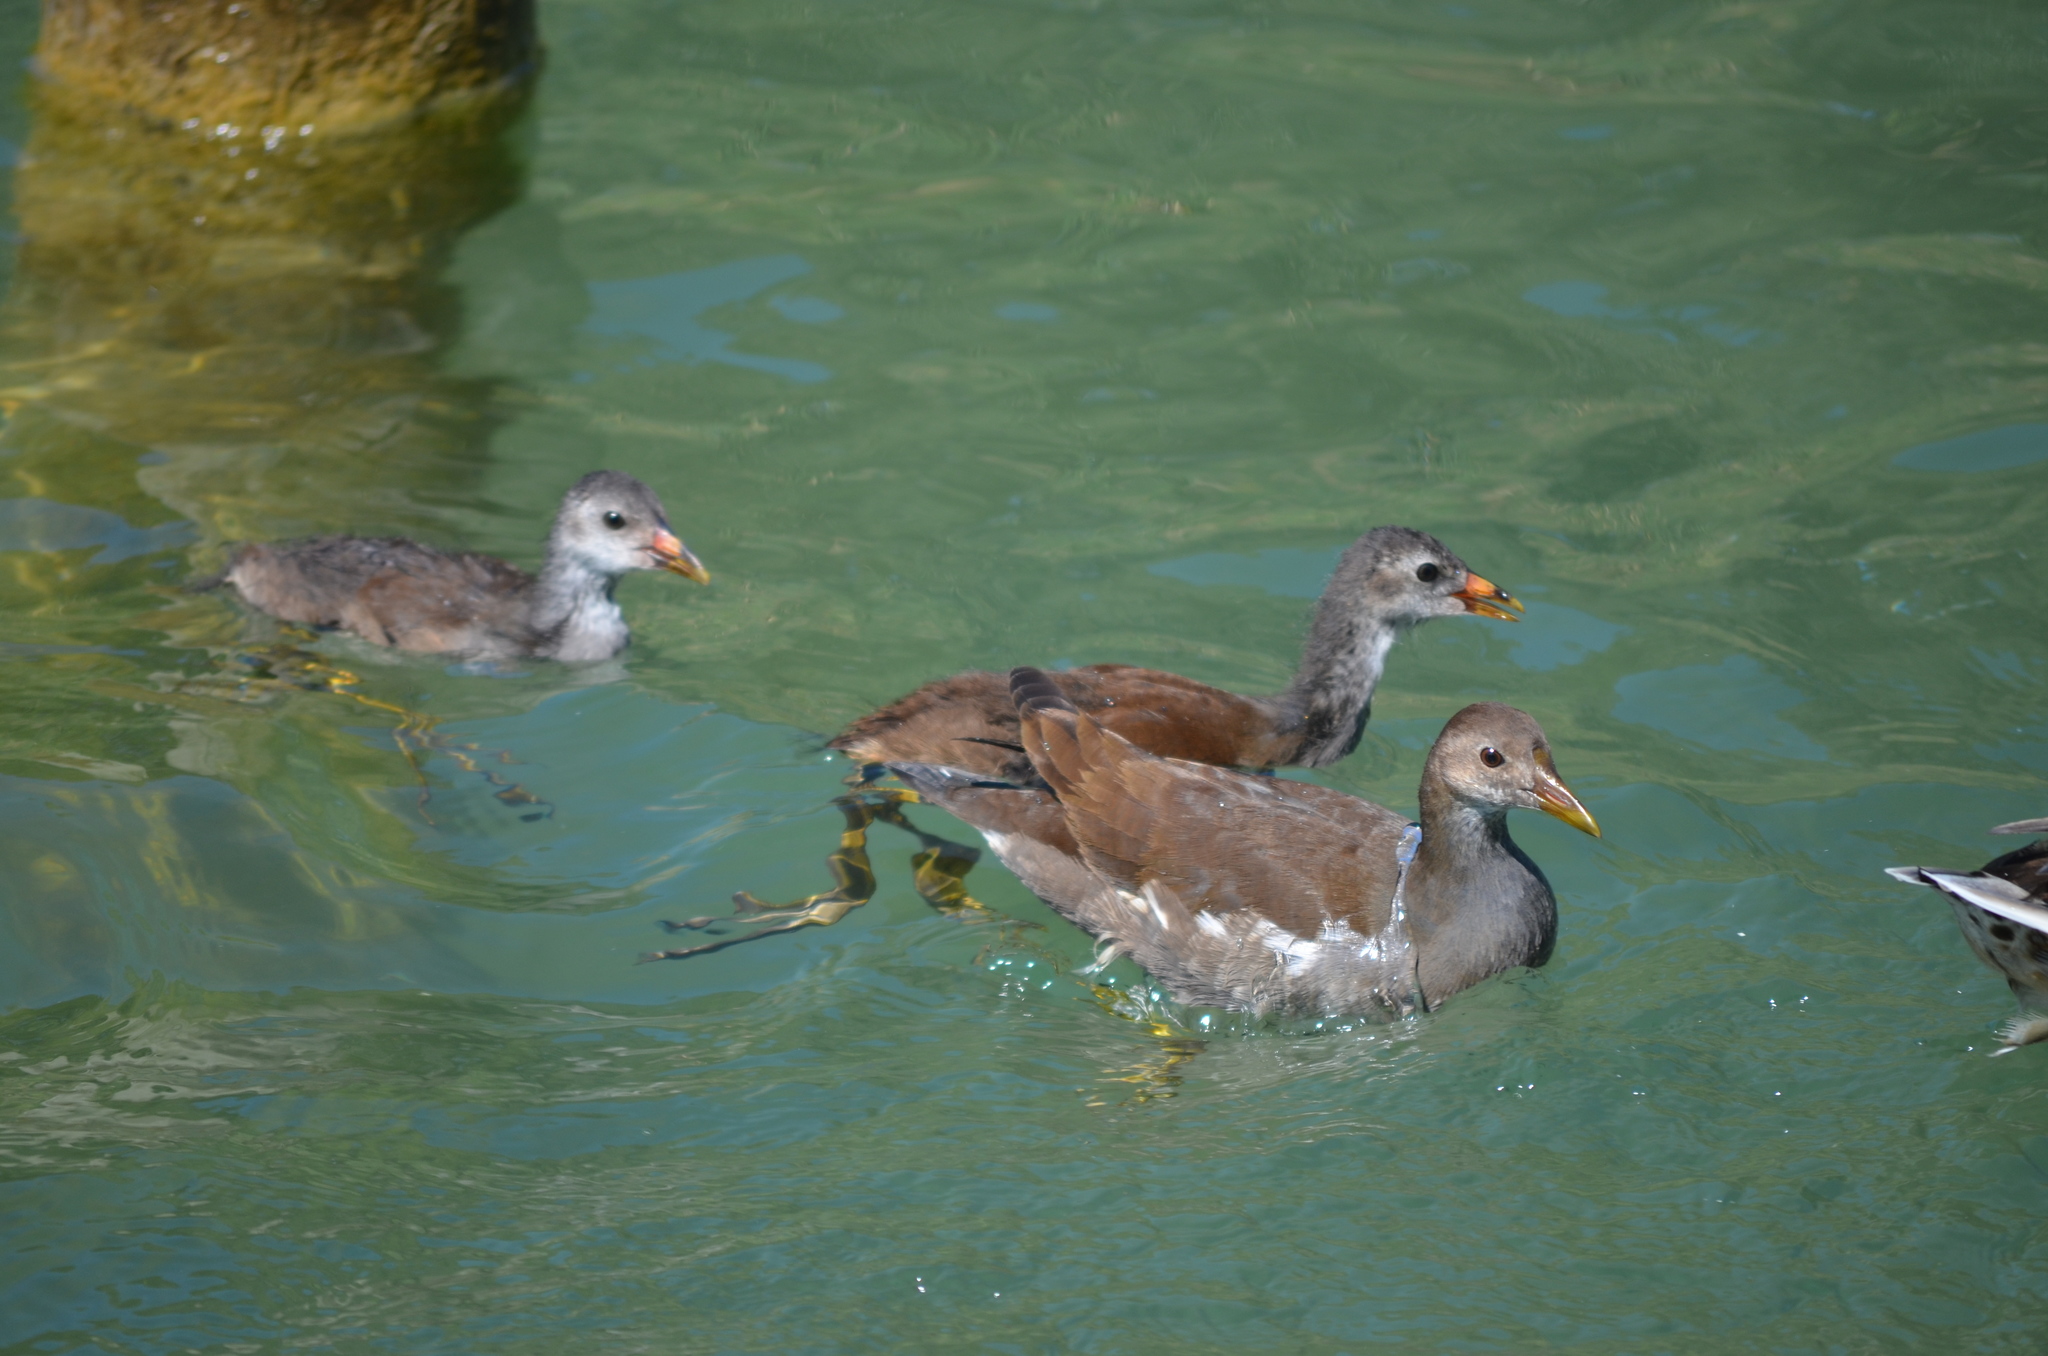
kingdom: Animalia
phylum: Chordata
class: Aves
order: Gruiformes
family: Rallidae
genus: Gallinula
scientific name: Gallinula chloropus
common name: Common moorhen
